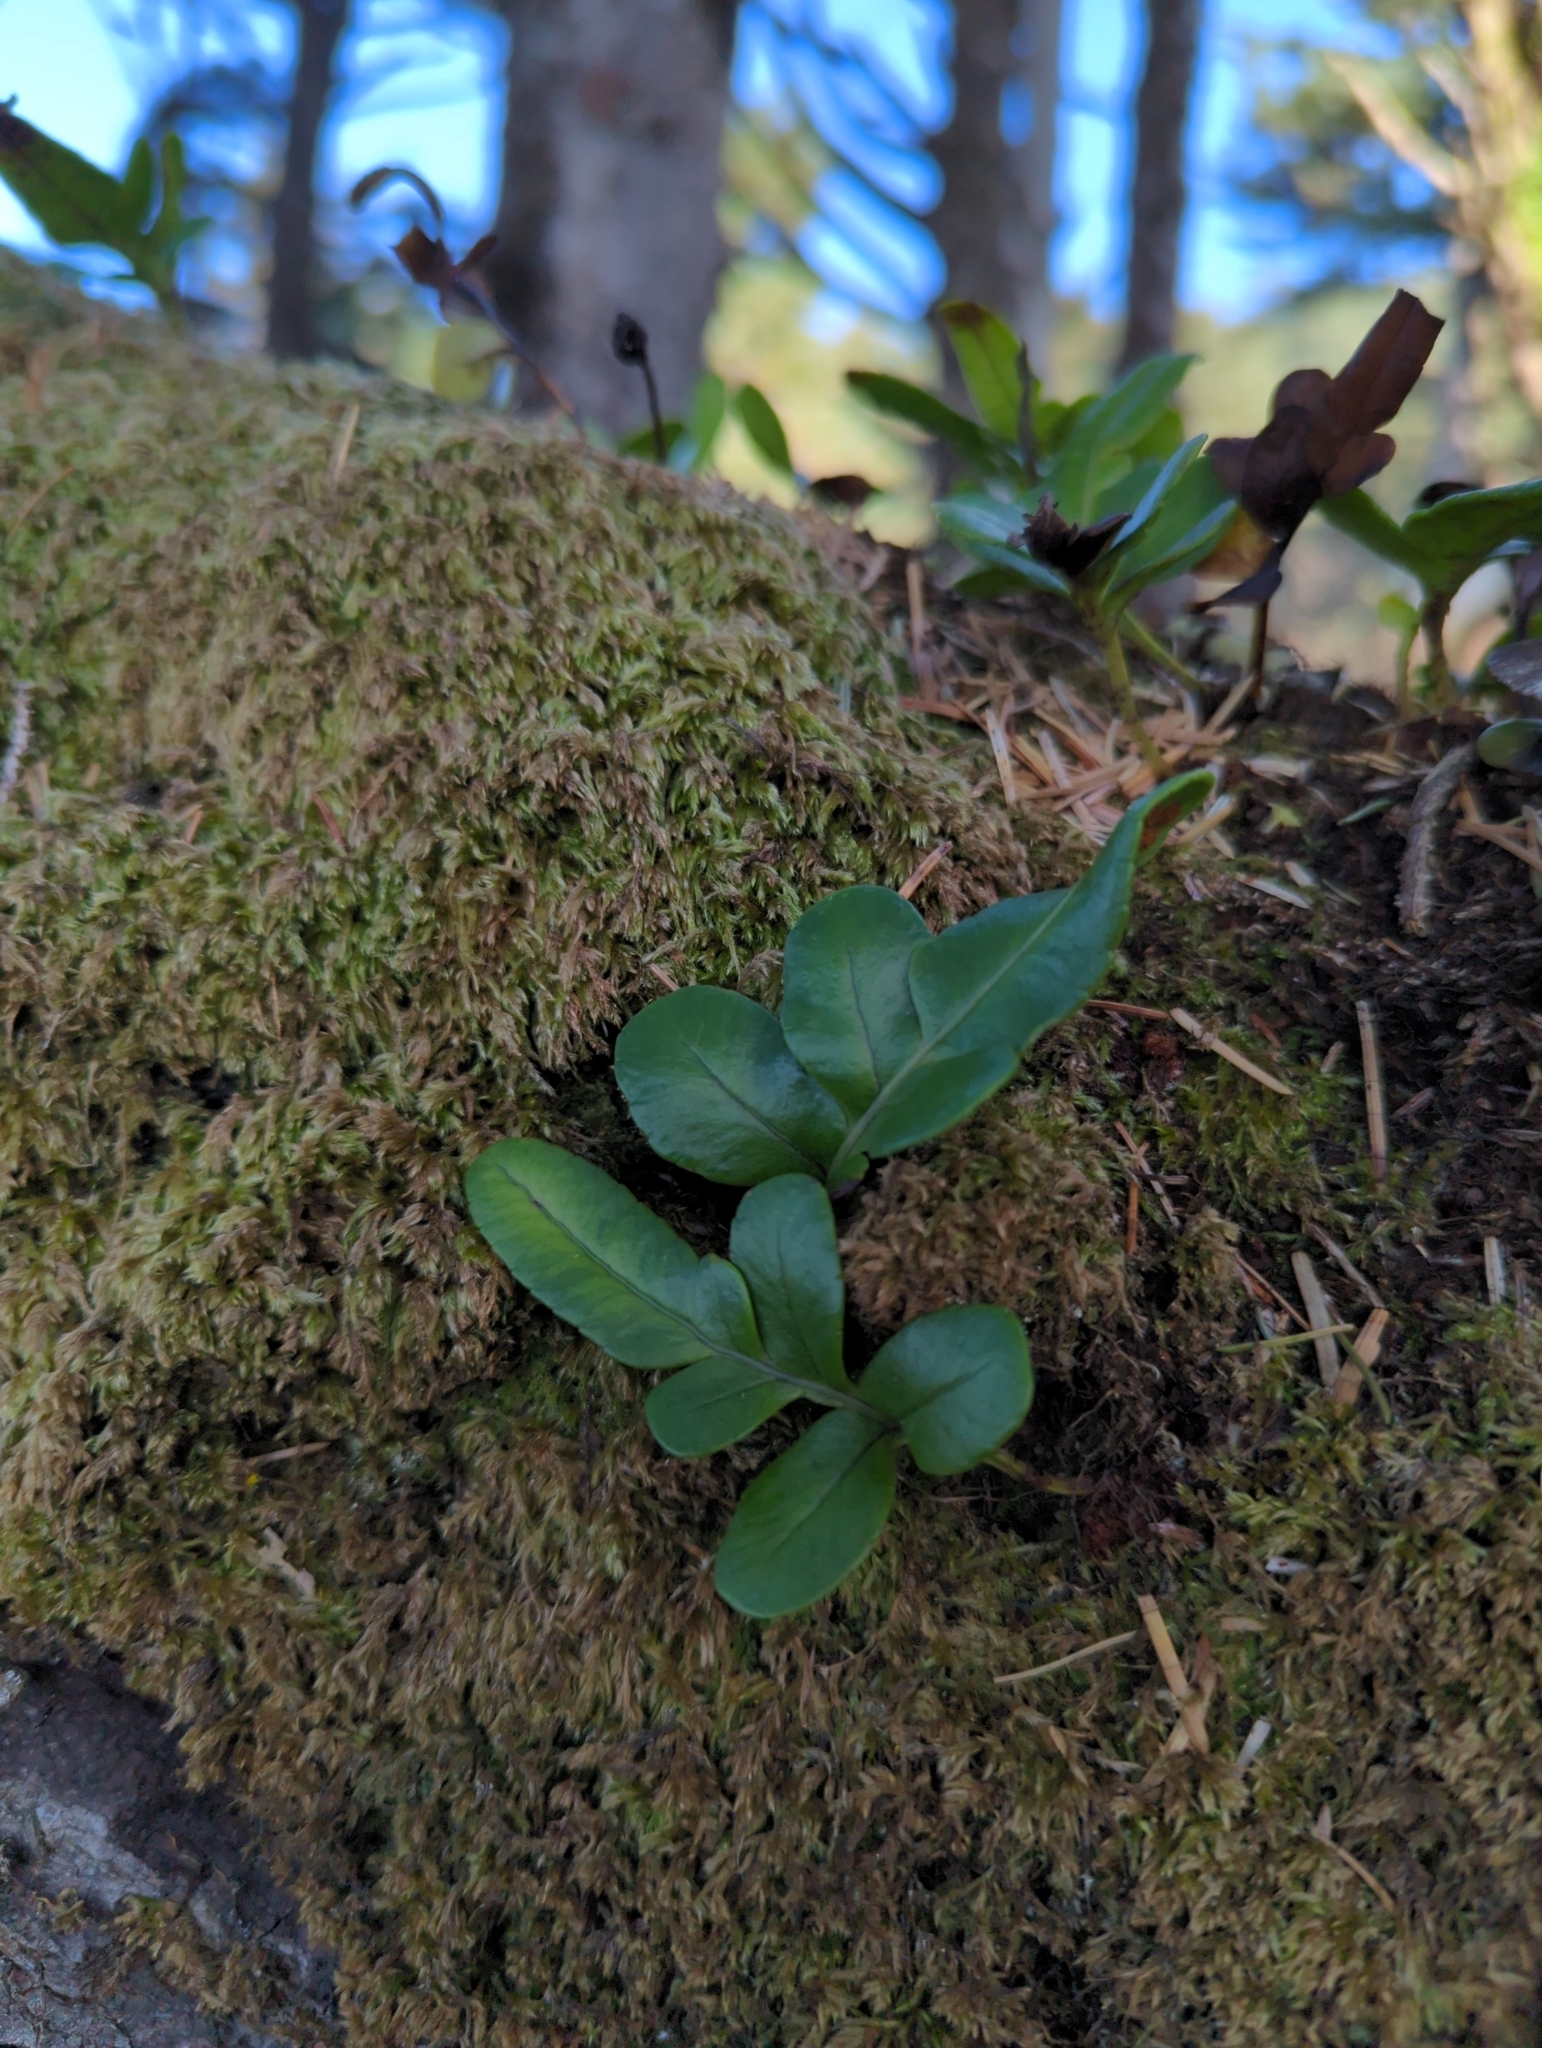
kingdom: Plantae
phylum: Tracheophyta
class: Polypodiopsida
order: Polypodiales
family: Polypodiaceae
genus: Polypodium
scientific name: Polypodium scouleri
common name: Scouler's polypody
